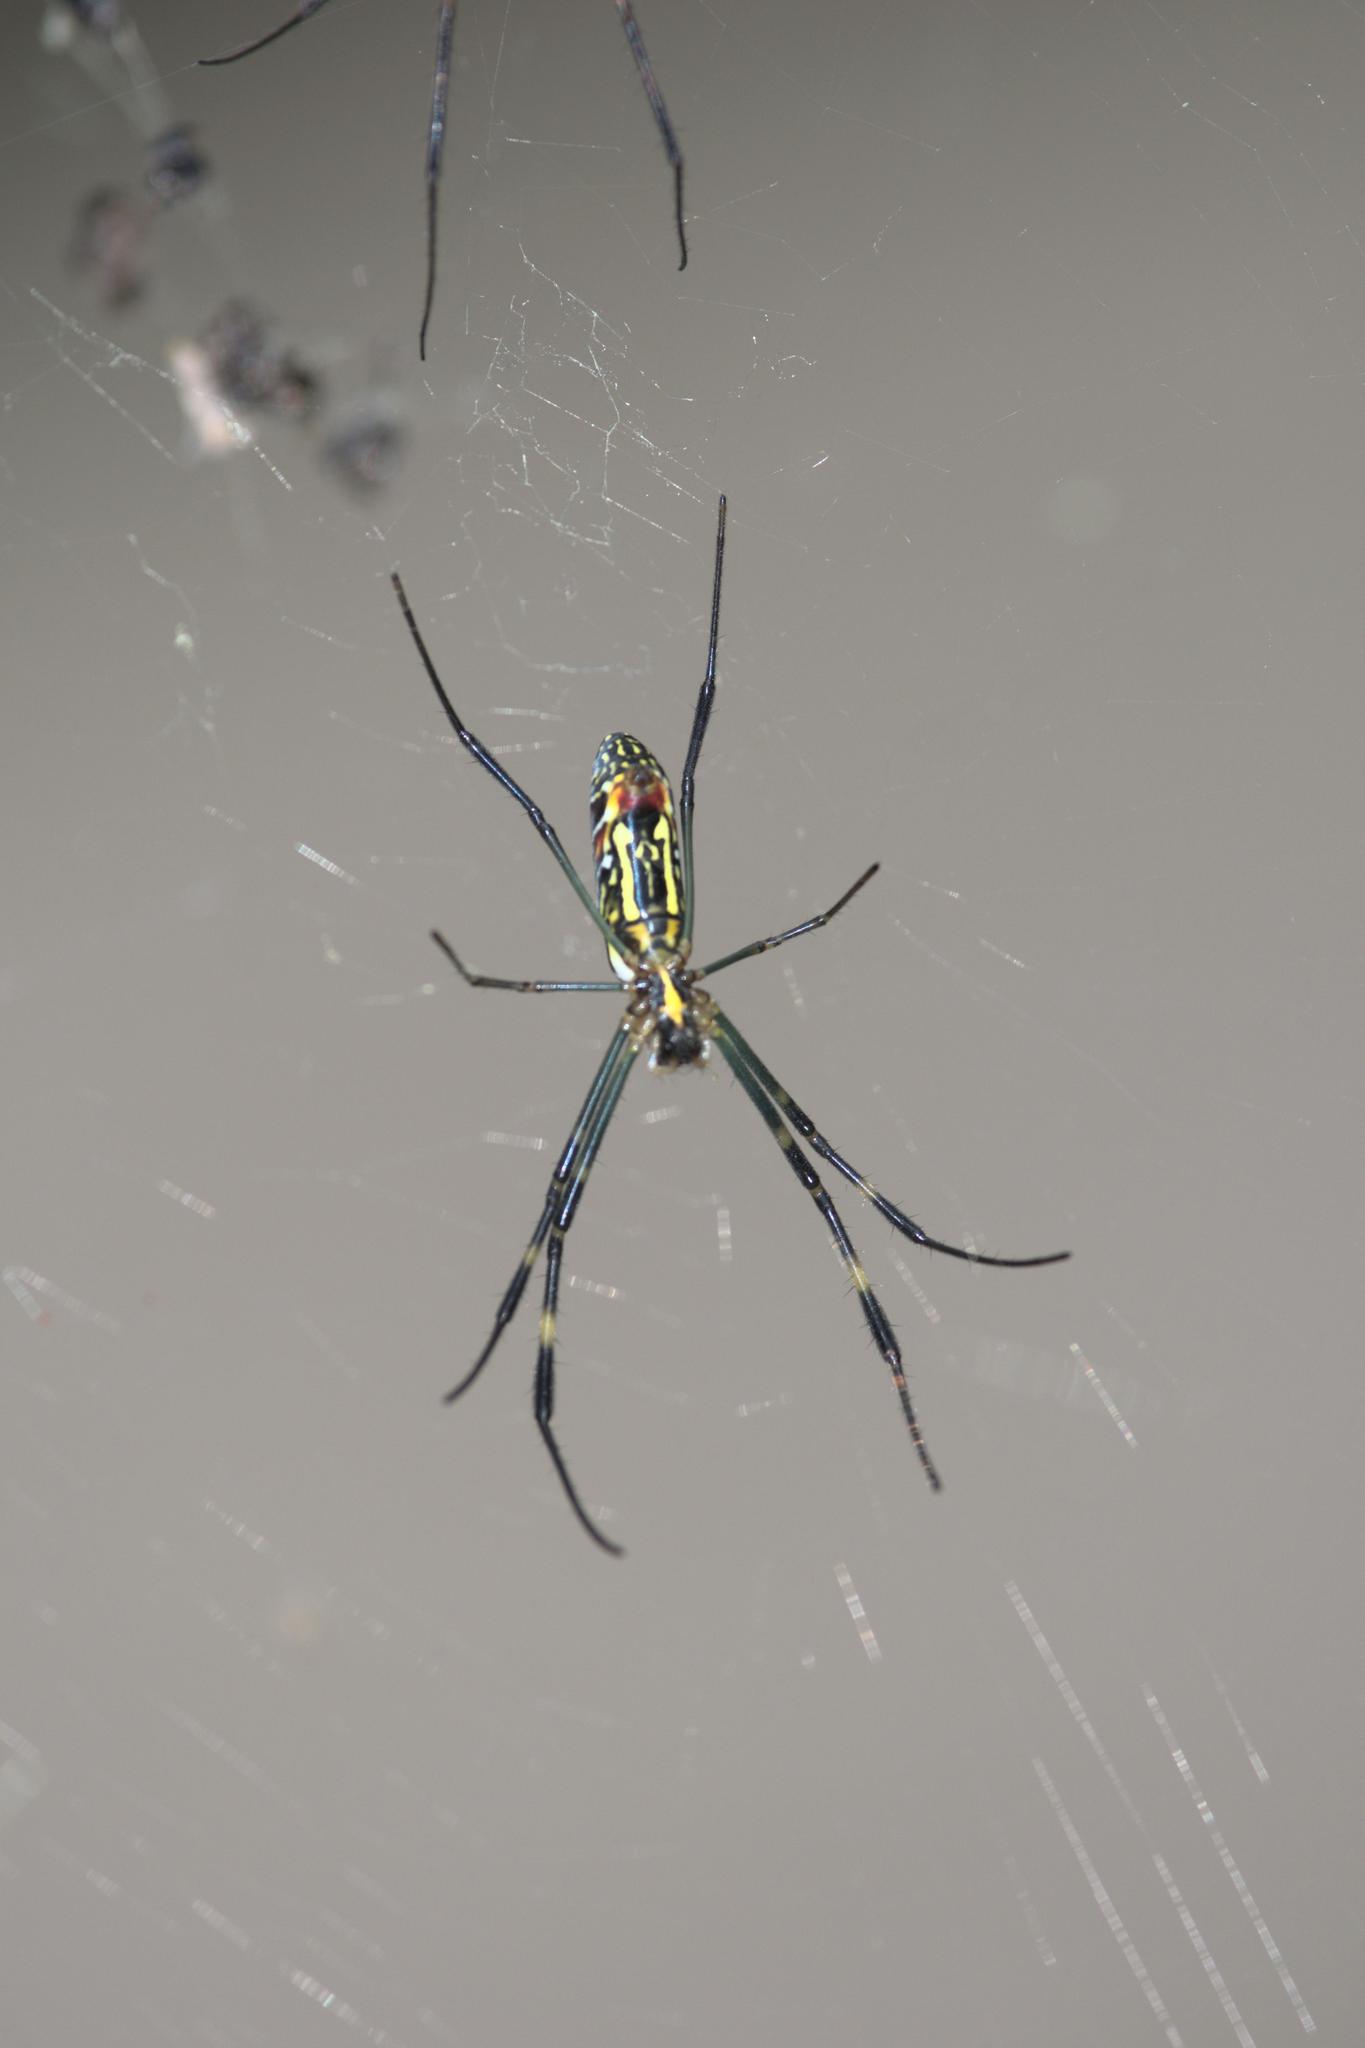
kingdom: Animalia
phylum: Arthropoda
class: Arachnida
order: Araneae
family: Araneidae
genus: Trichonephila
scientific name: Trichonephila clavata
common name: Jorō spider
